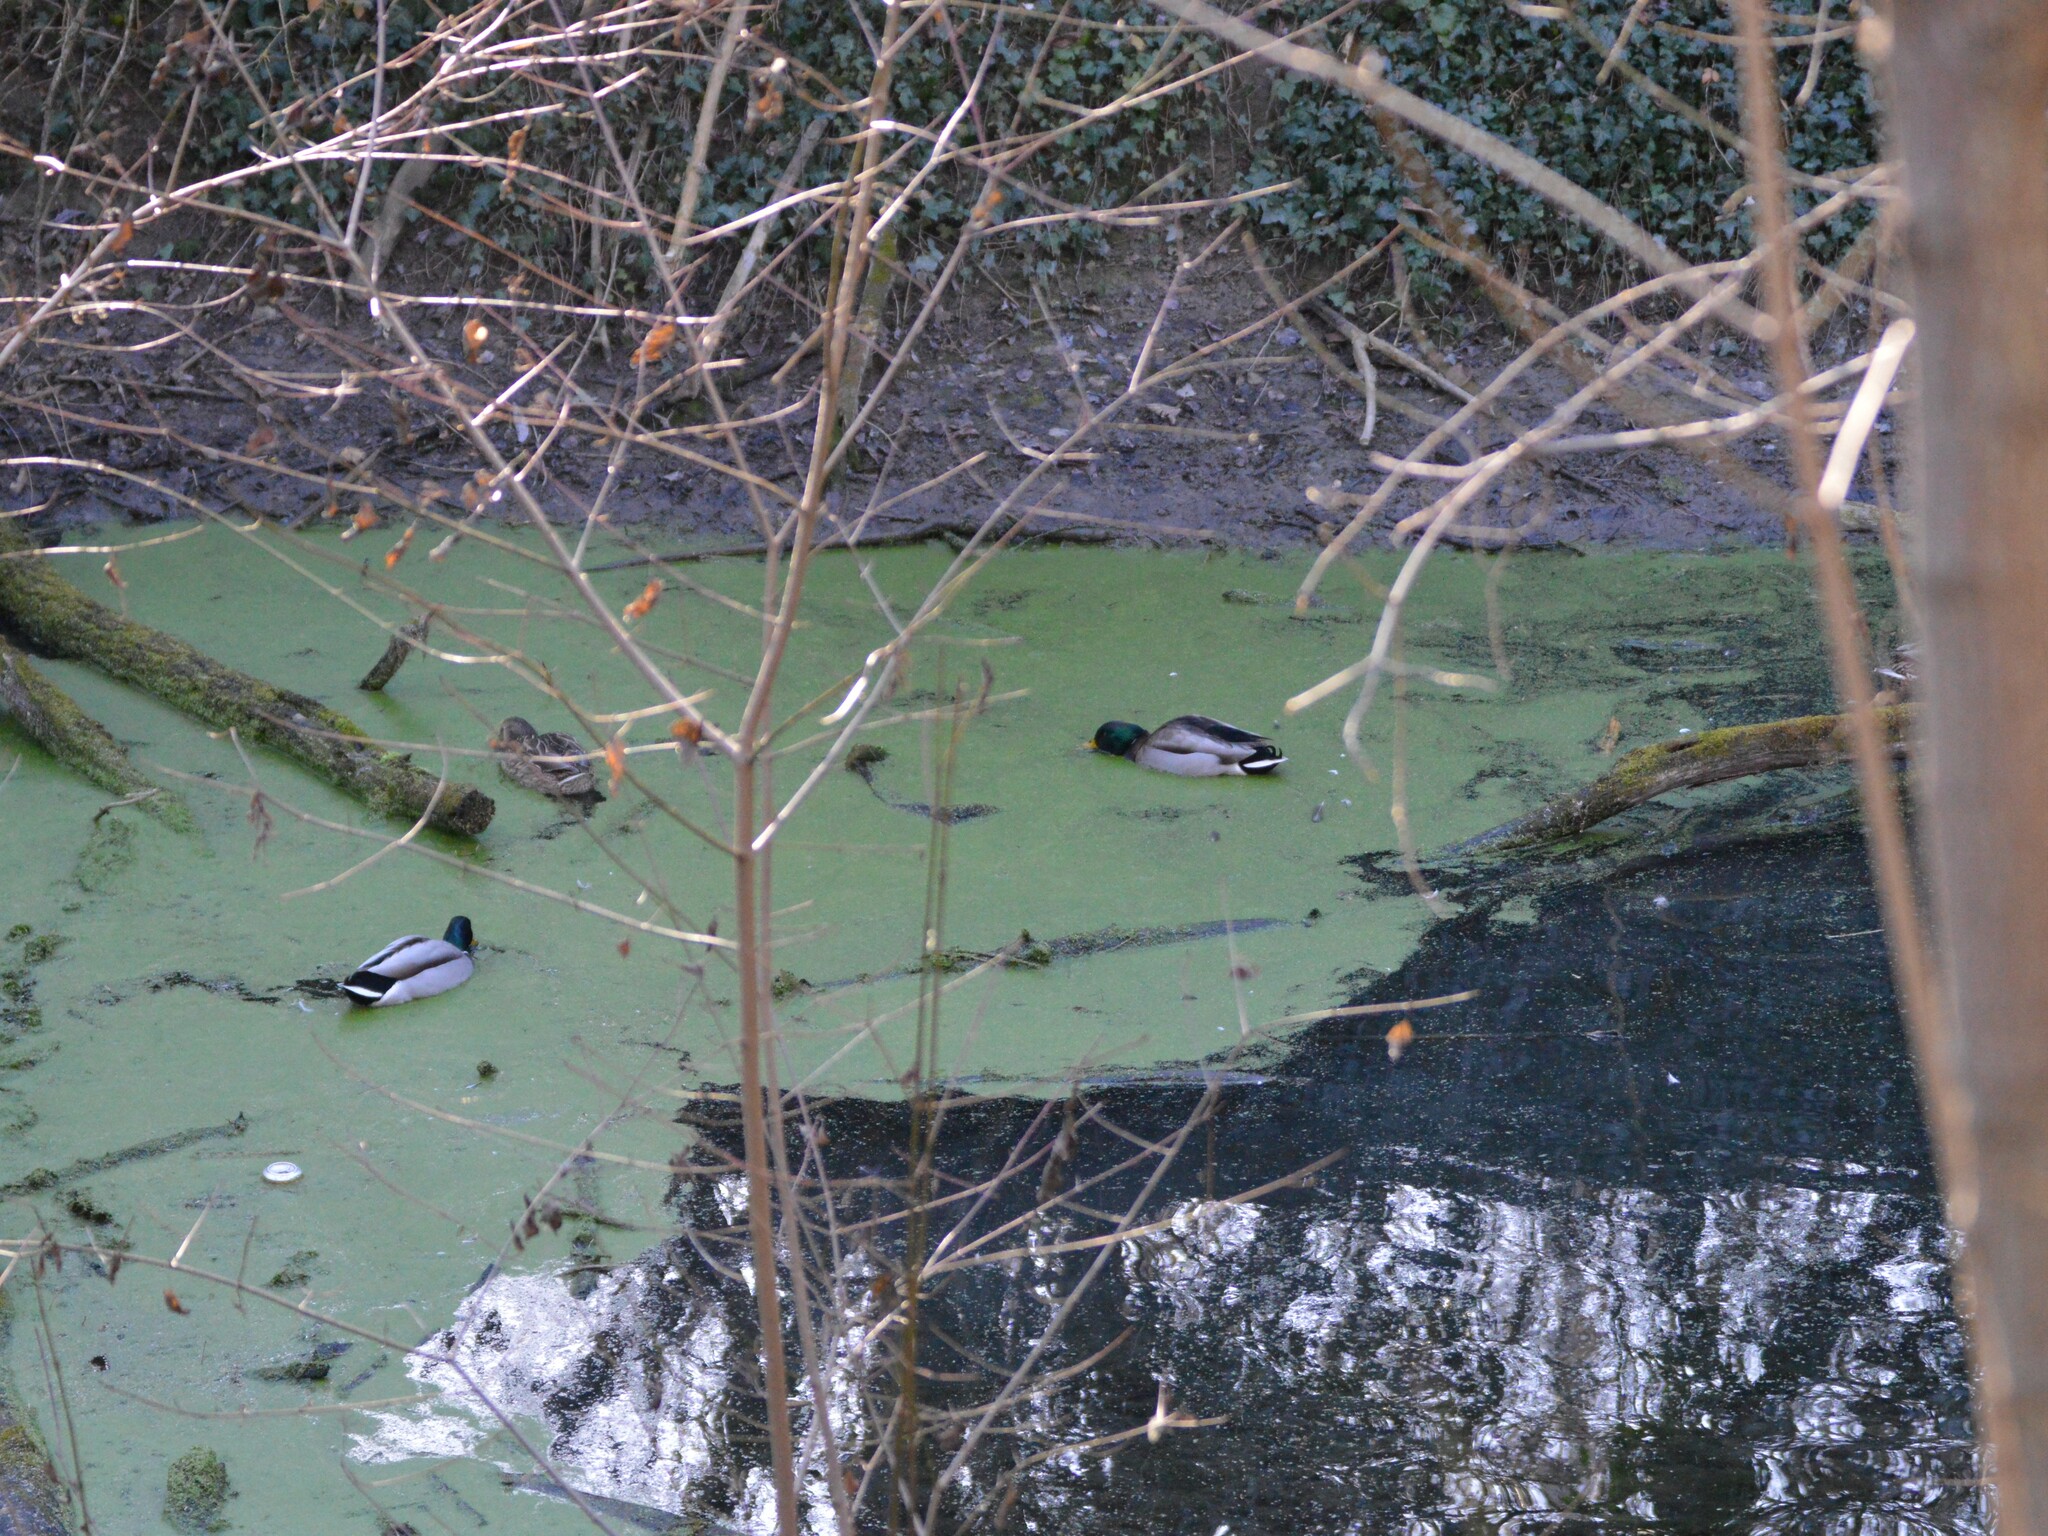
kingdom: Animalia
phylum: Chordata
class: Aves
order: Anseriformes
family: Anatidae
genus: Anas
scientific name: Anas platyrhynchos
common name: Mallard
